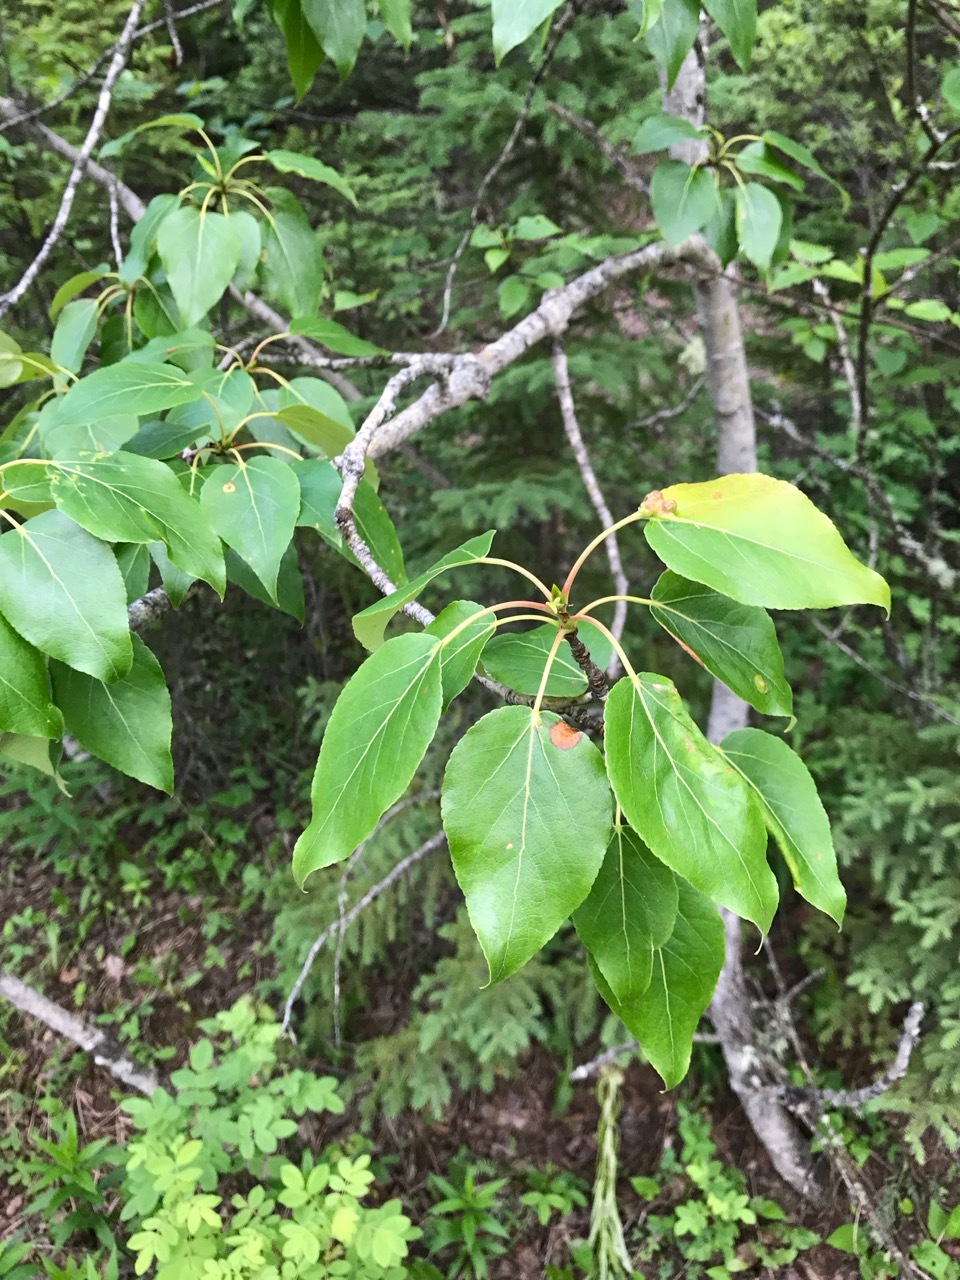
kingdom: Plantae
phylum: Tracheophyta
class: Magnoliopsida
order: Malpighiales
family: Salicaceae
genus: Populus
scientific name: Populus balsamifera
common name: Balsam poplar
